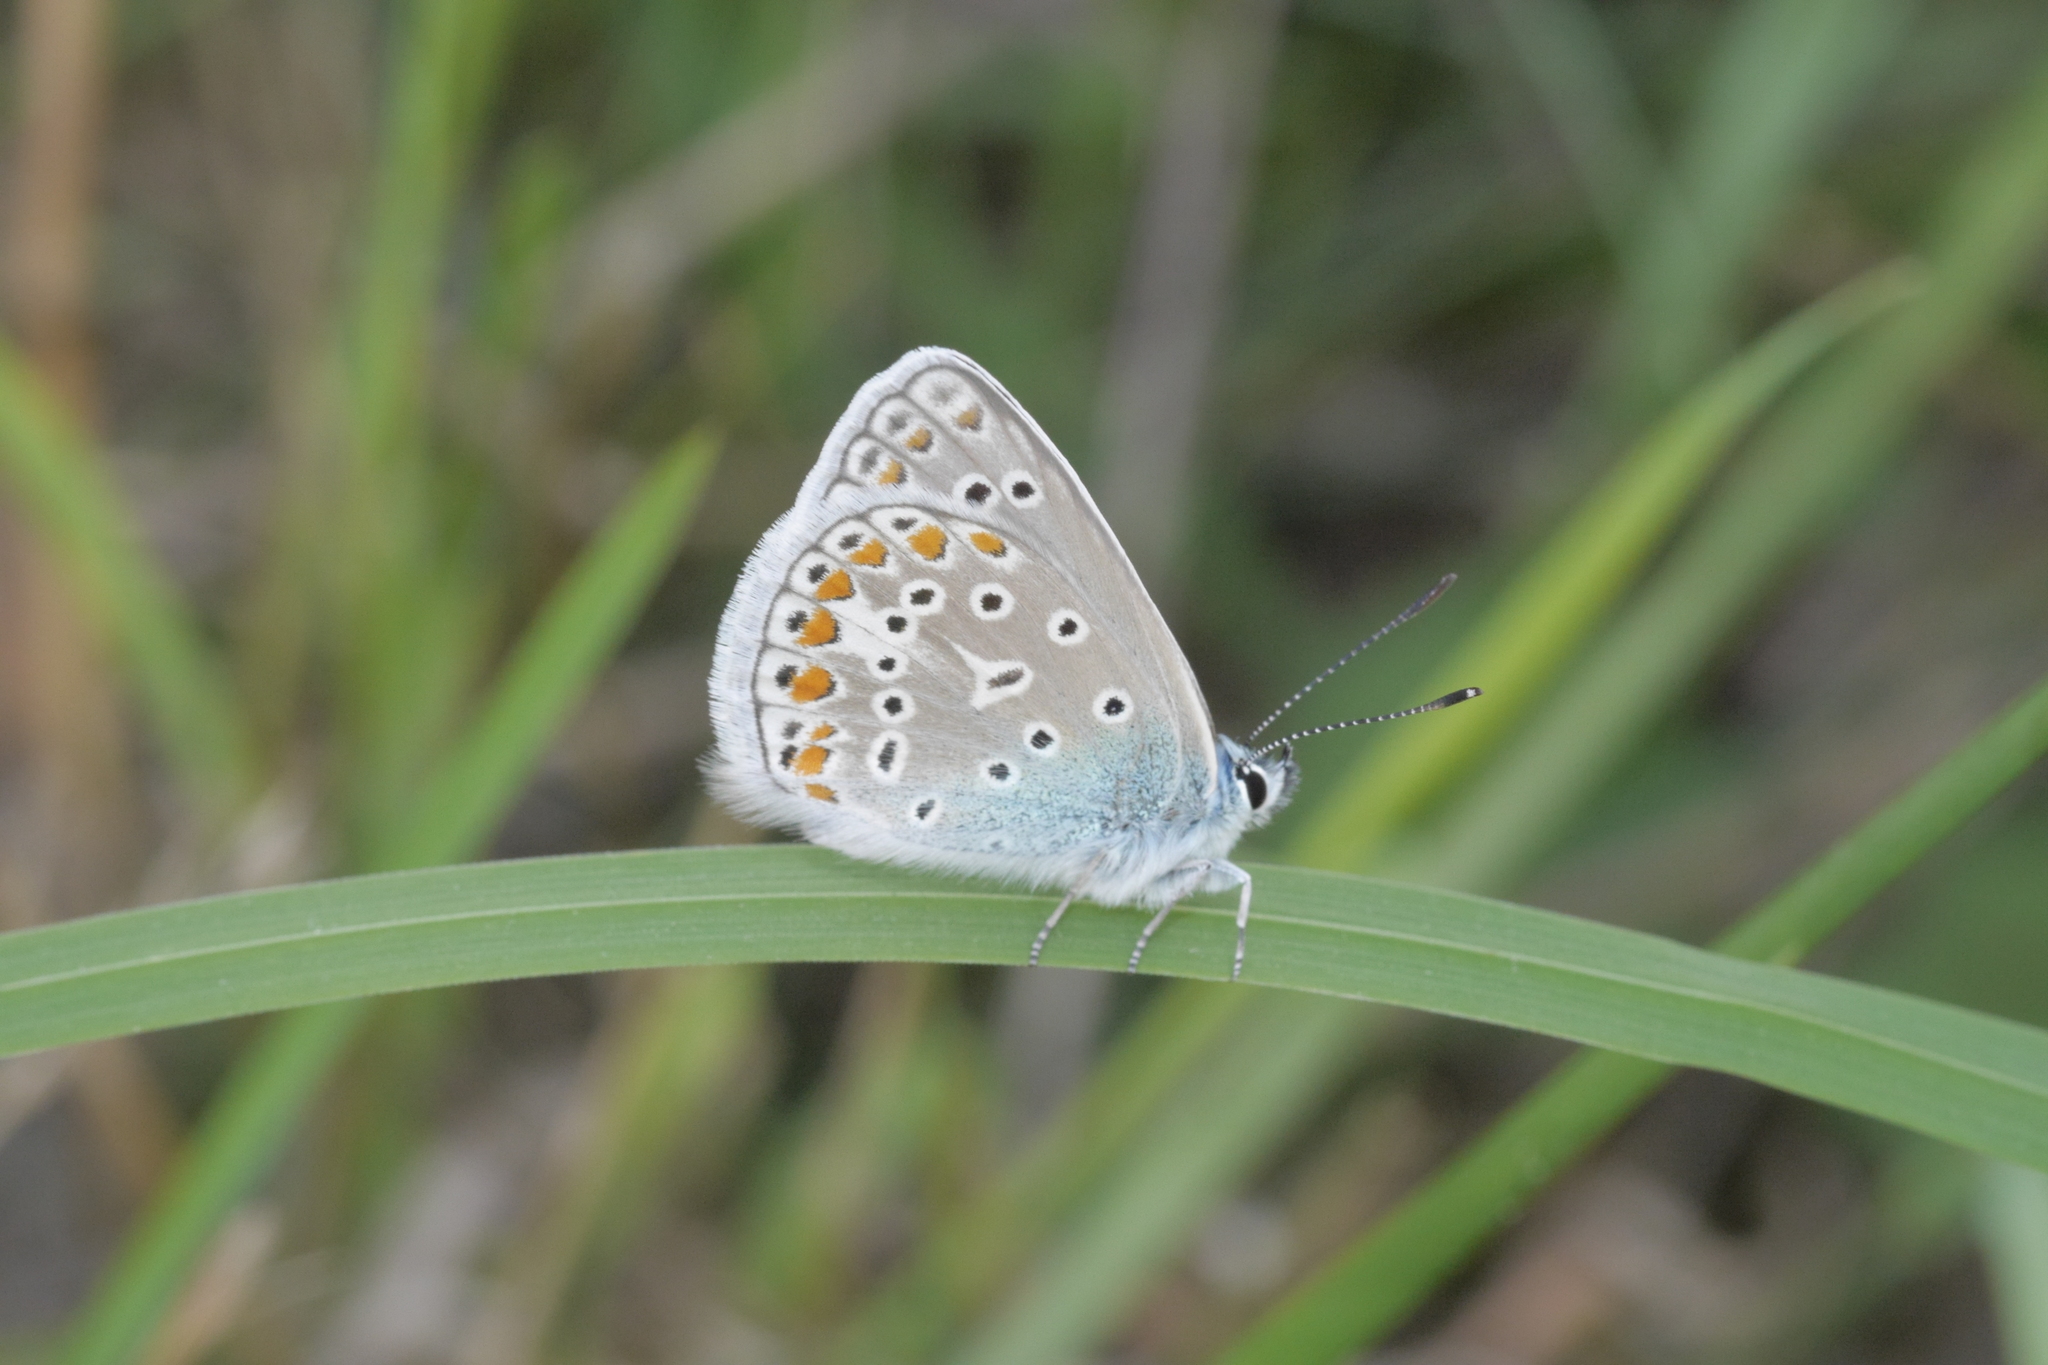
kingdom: Animalia
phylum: Arthropoda
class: Insecta
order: Lepidoptera
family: Lycaenidae
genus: Polyommatus
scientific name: Polyommatus icarus
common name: Common blue
